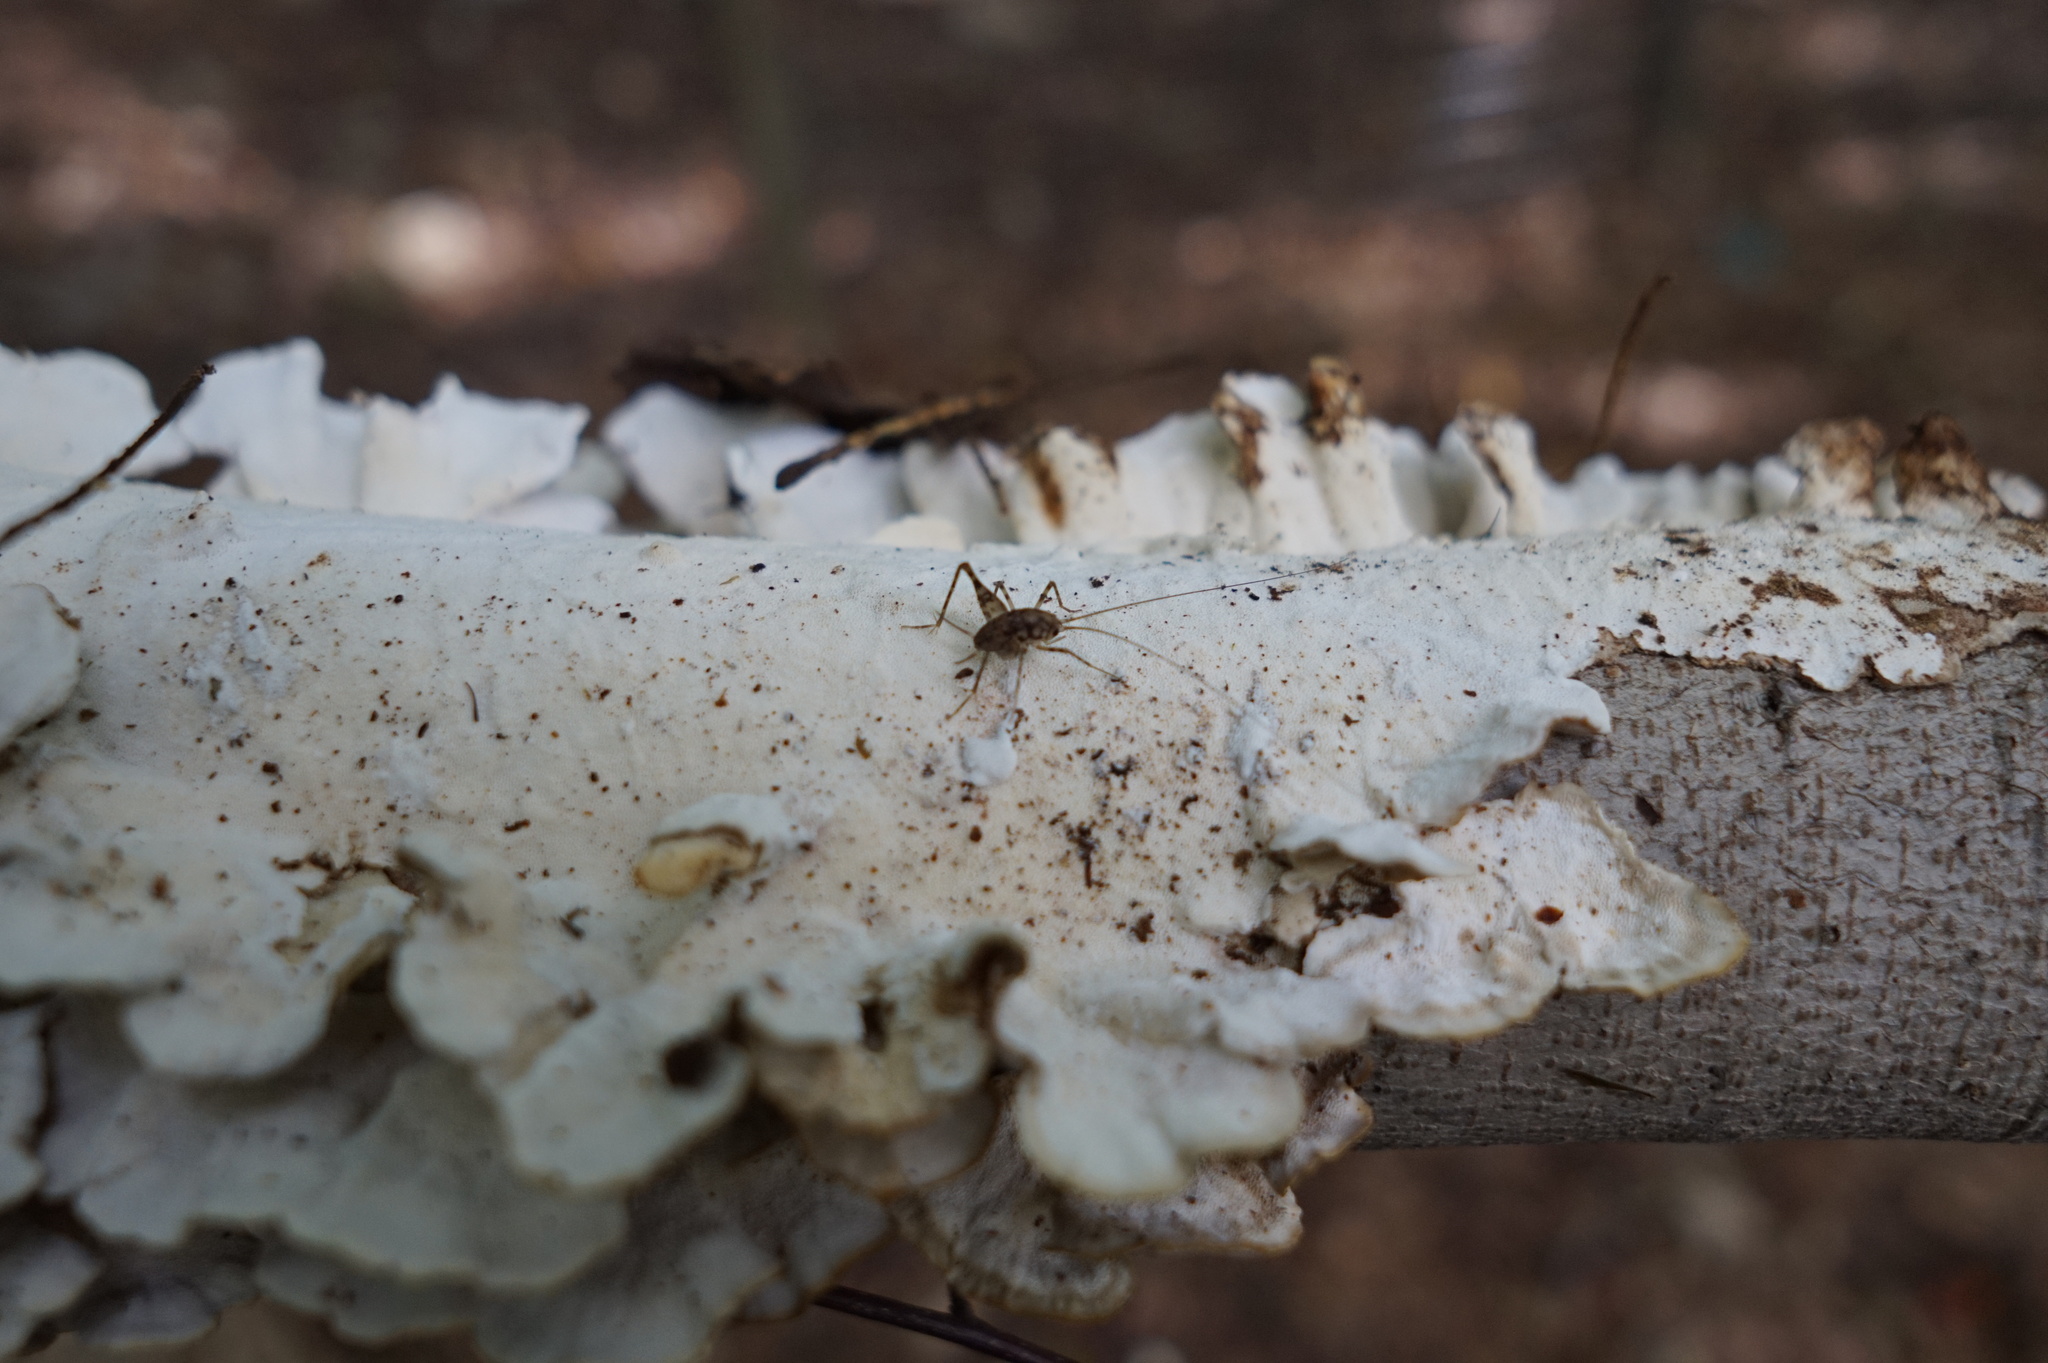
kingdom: Fungi
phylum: Basidiomycota
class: Agaricomycetes
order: Polyporales
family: Polyporaceae
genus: Trametes
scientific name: Trametes versicolor
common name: Turkeytail
